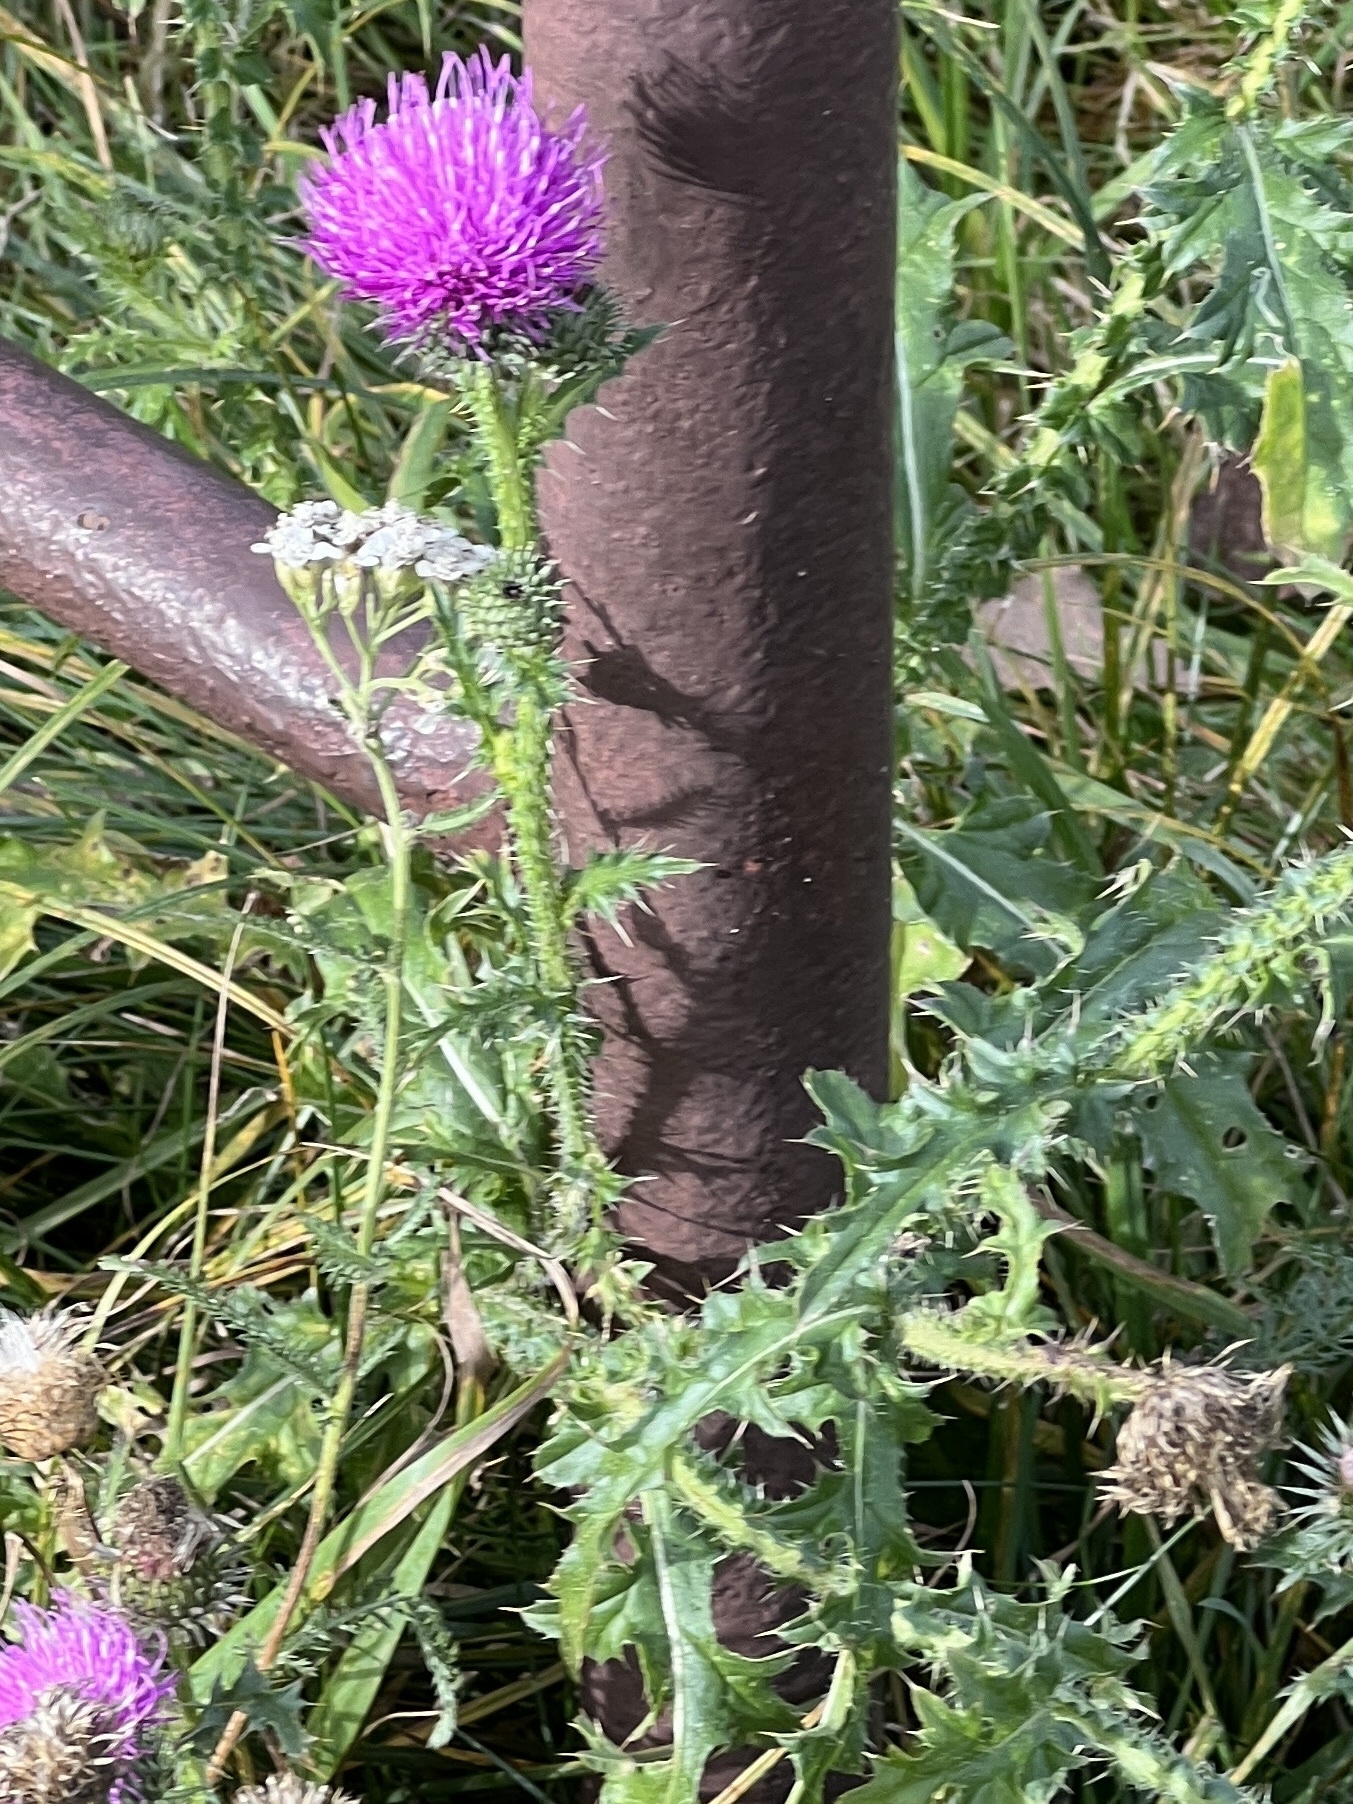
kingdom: Plantae
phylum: Tracheophyta
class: Magnoliopsida
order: Asterales
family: Asteraceae
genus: Carduus
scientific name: Carduus acanthoides
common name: Plumeless thistle
